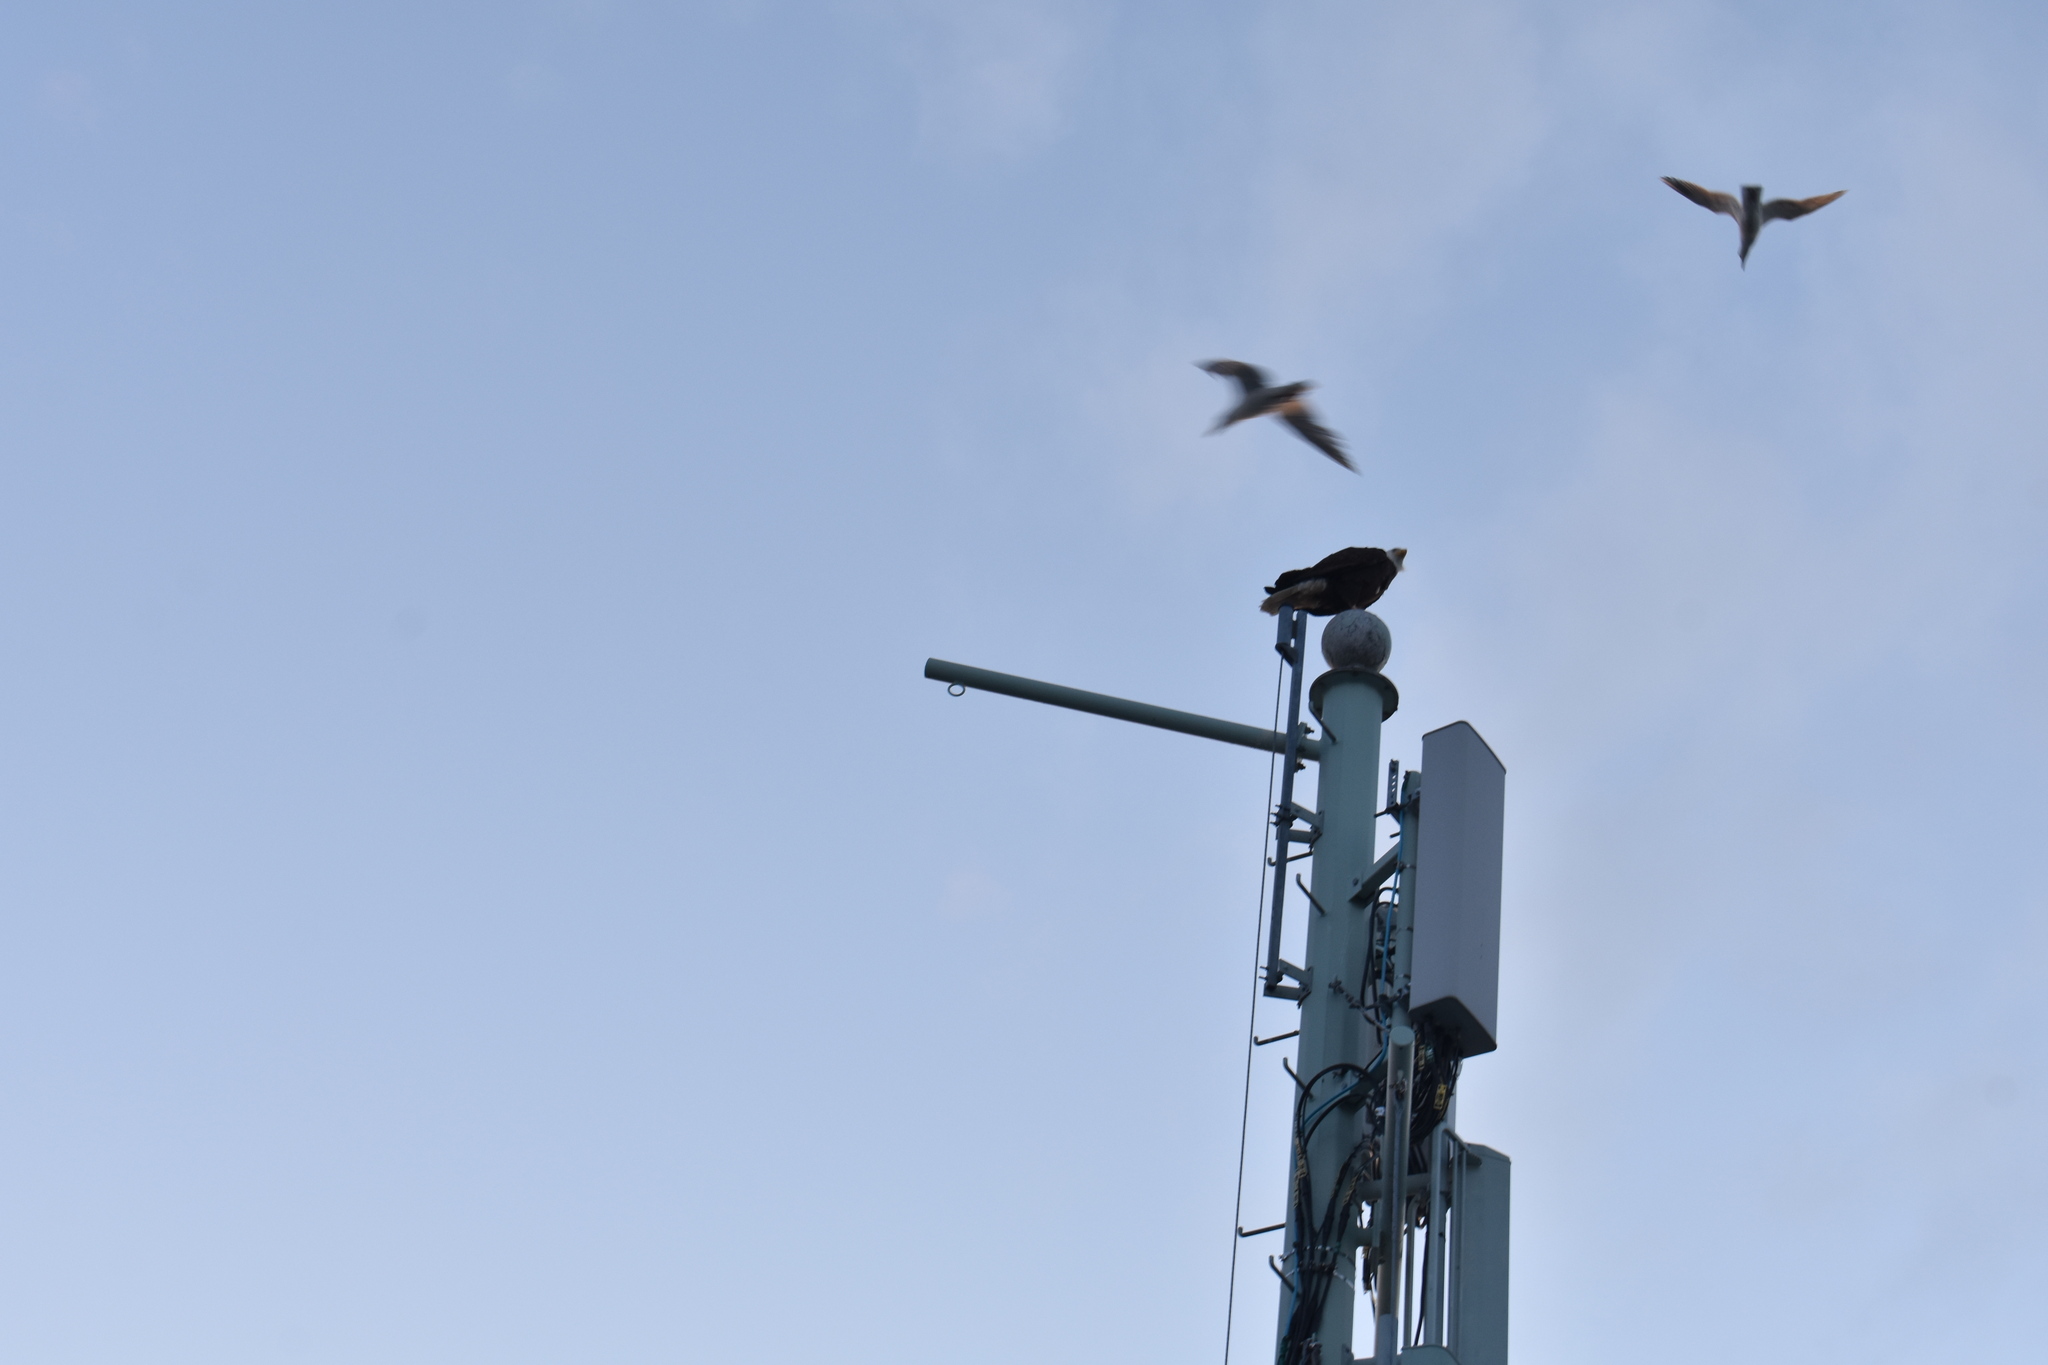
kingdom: Animalia
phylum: Chordata
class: Aves
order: Accipitriformes
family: Accipitridae
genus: Haliaeetus
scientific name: Haliaeetus leucocephalus
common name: Bald eagle
